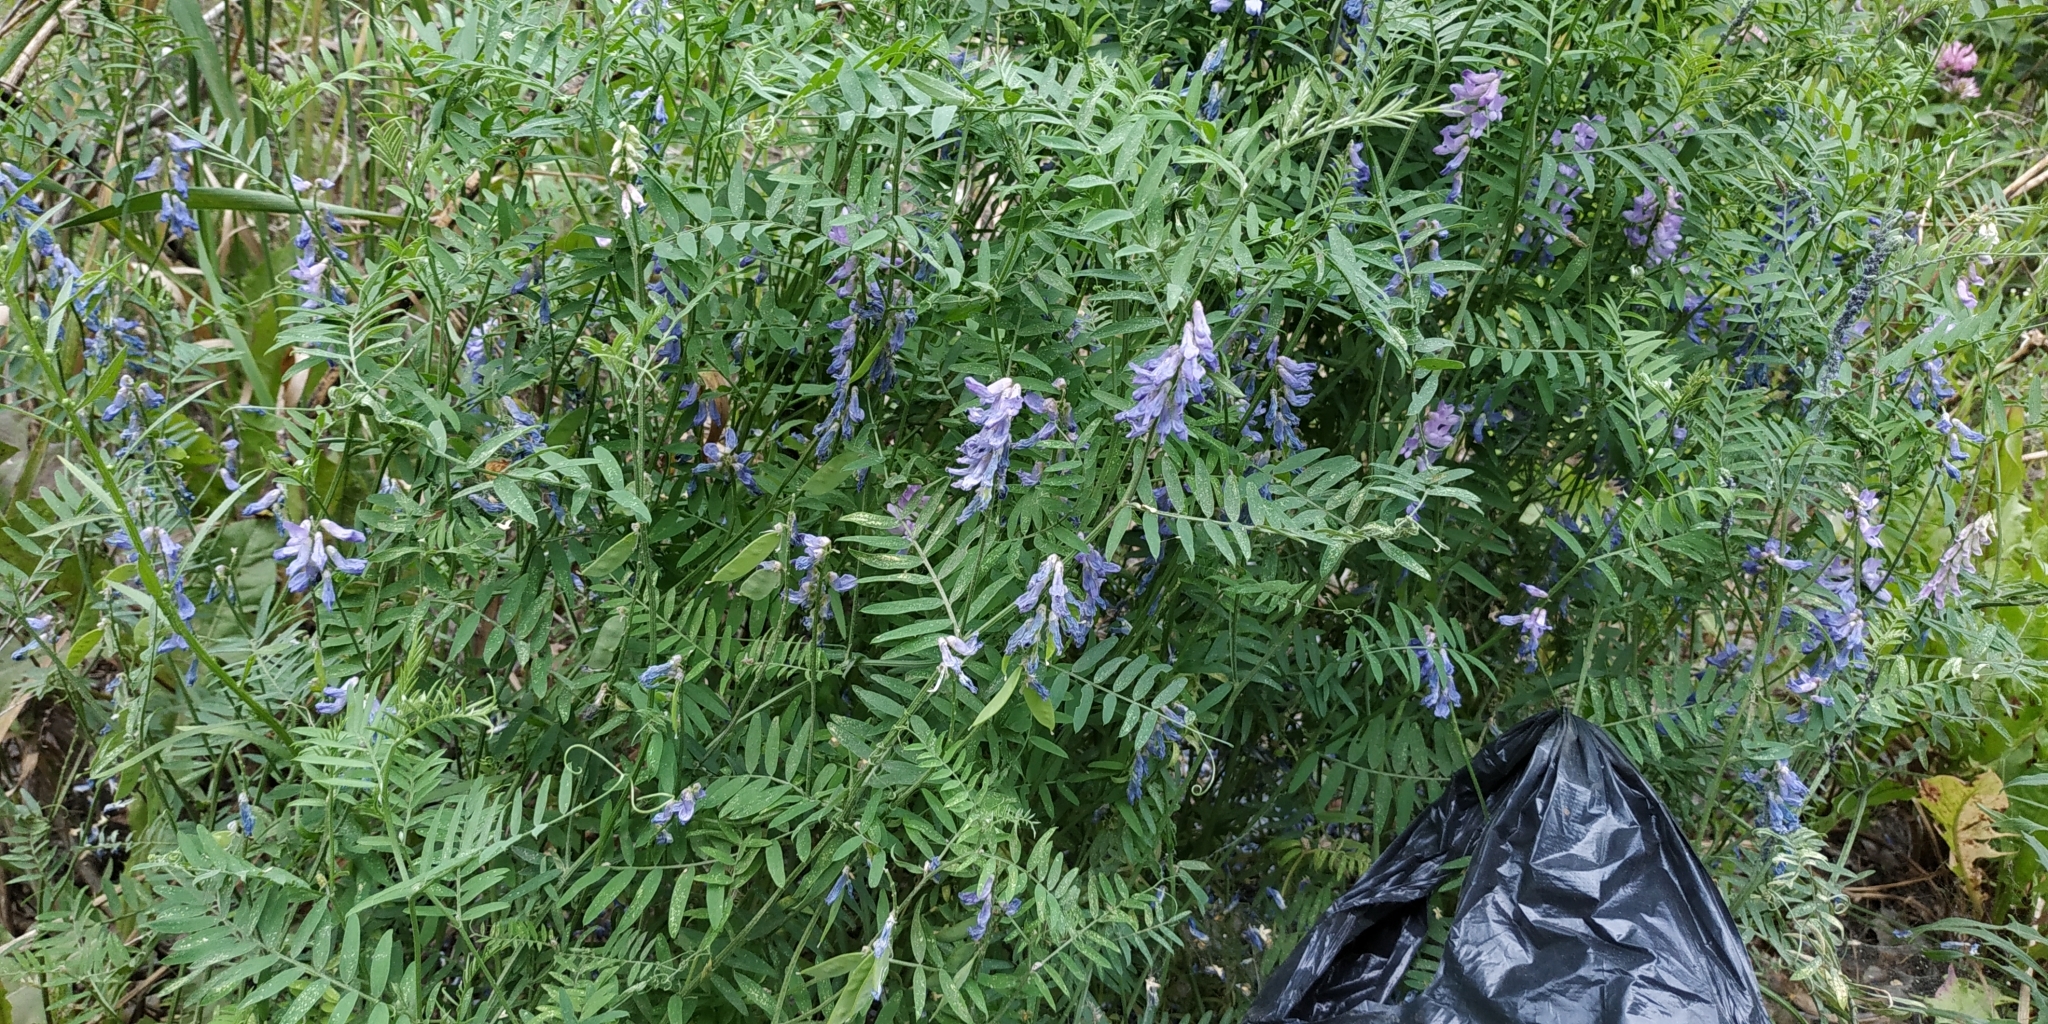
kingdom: Plantae
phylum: Tracheophyta
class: Magnoliopsida
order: Fabales
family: Fabaceae
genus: Vicia
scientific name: Vicia cracca
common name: Bird vetch
